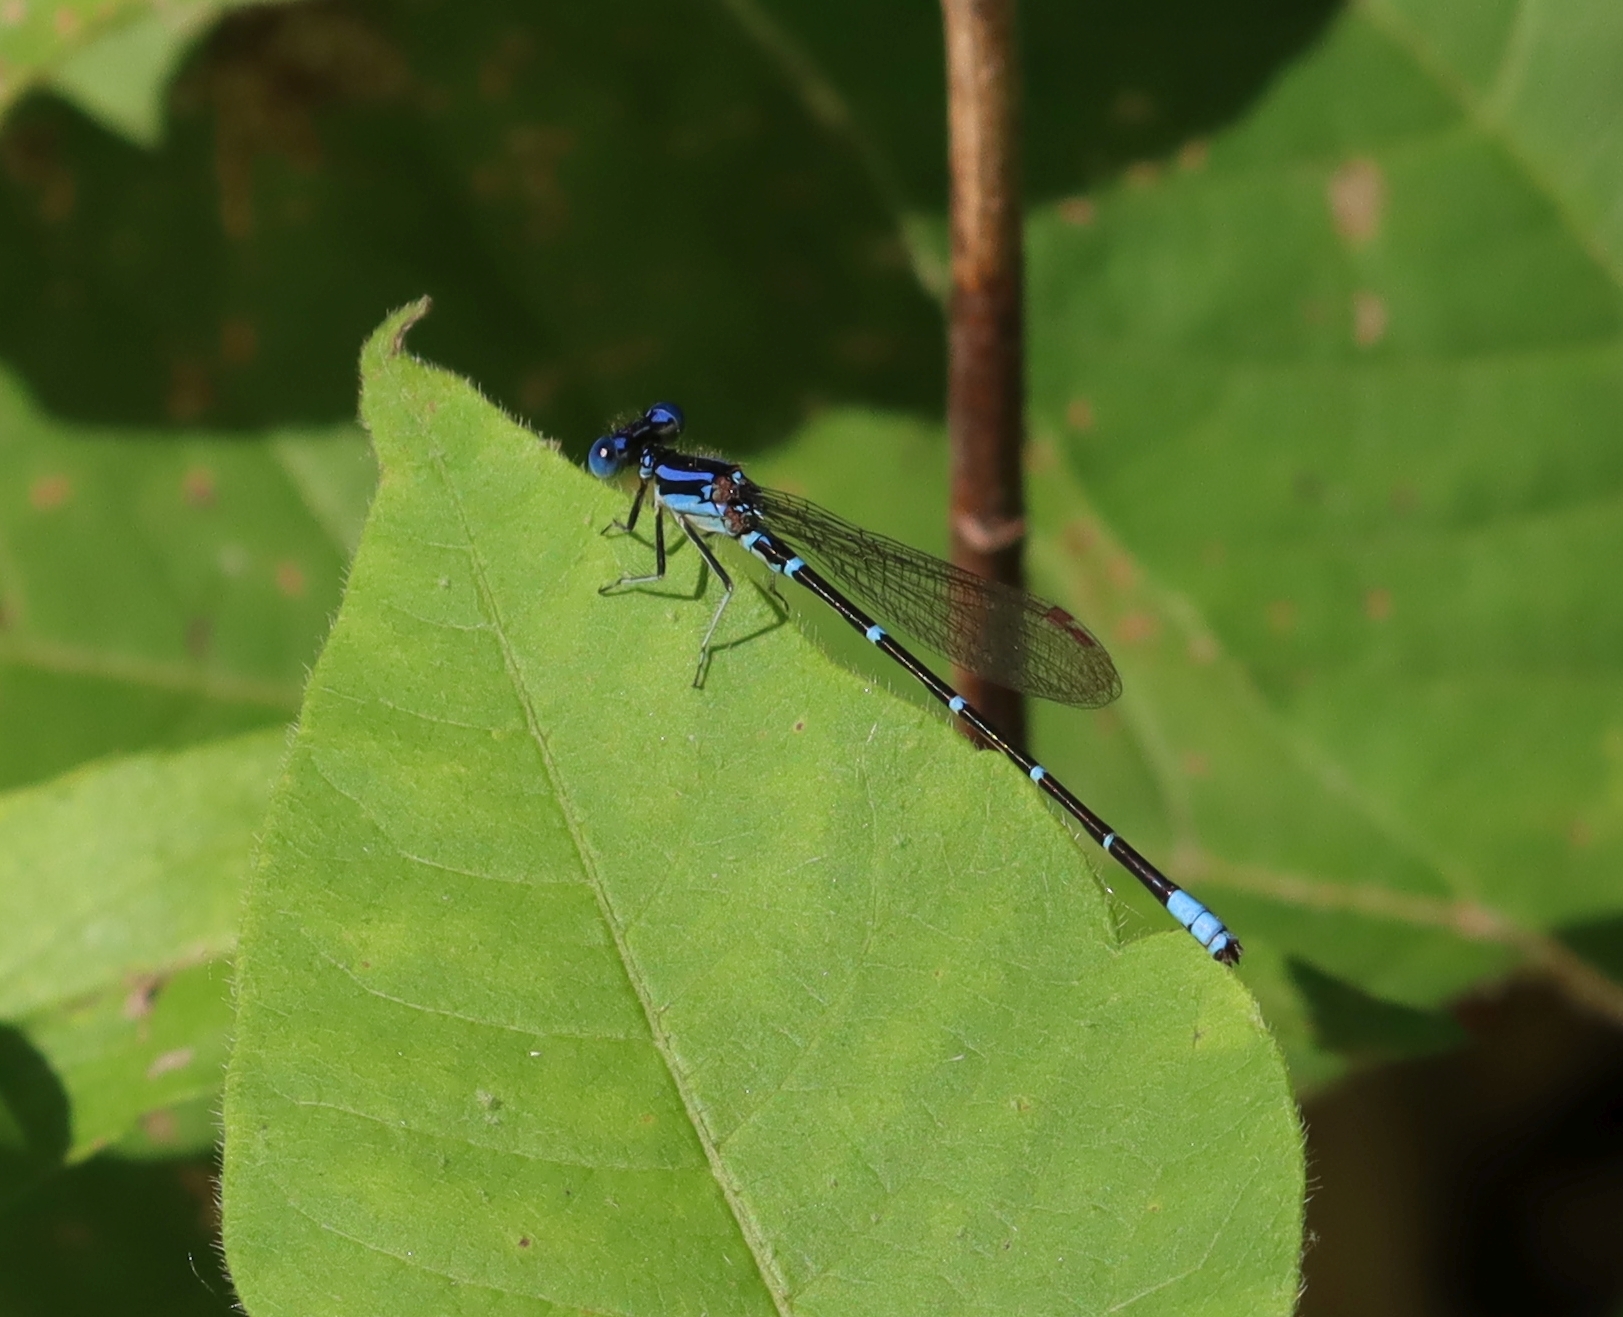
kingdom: Animalia
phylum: Arthropoda
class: Insecta
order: Odonata
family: Coenagrionidae
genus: Argia
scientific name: Argia sedula
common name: Blue-ringed dancer
